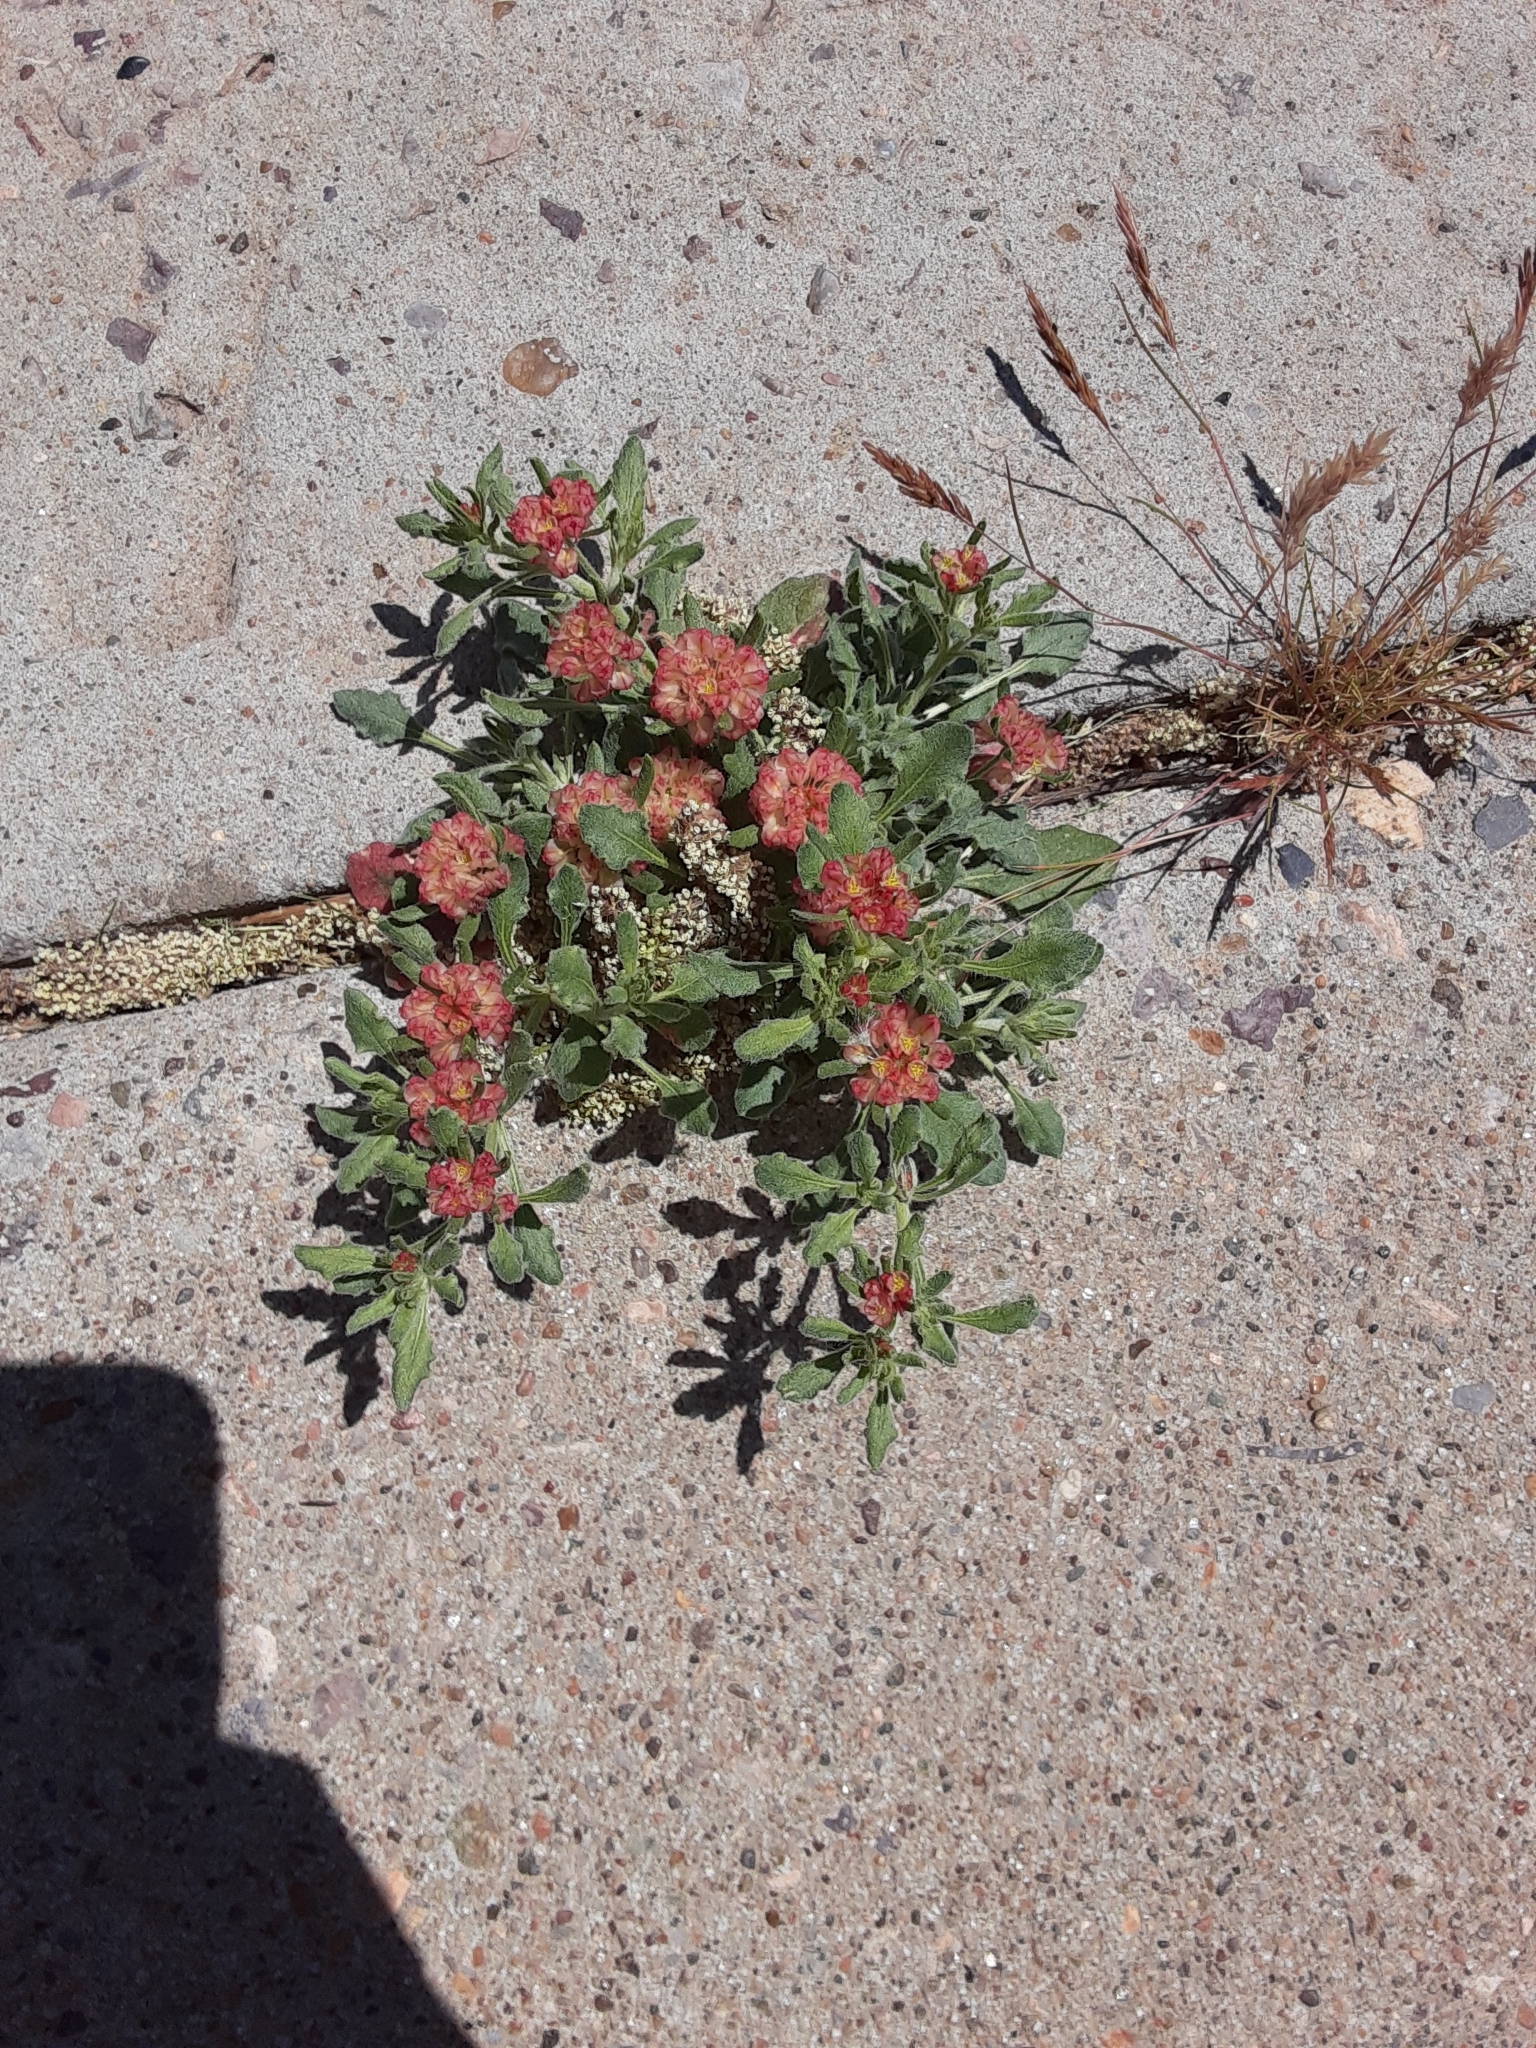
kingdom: Plantae
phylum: Tracheophyta
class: Magnoliopsida
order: Caryophyllales
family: Polygonaceae
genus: Eriogonum
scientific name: Eriogonum abertianum
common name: Abert's wild buckwheat
